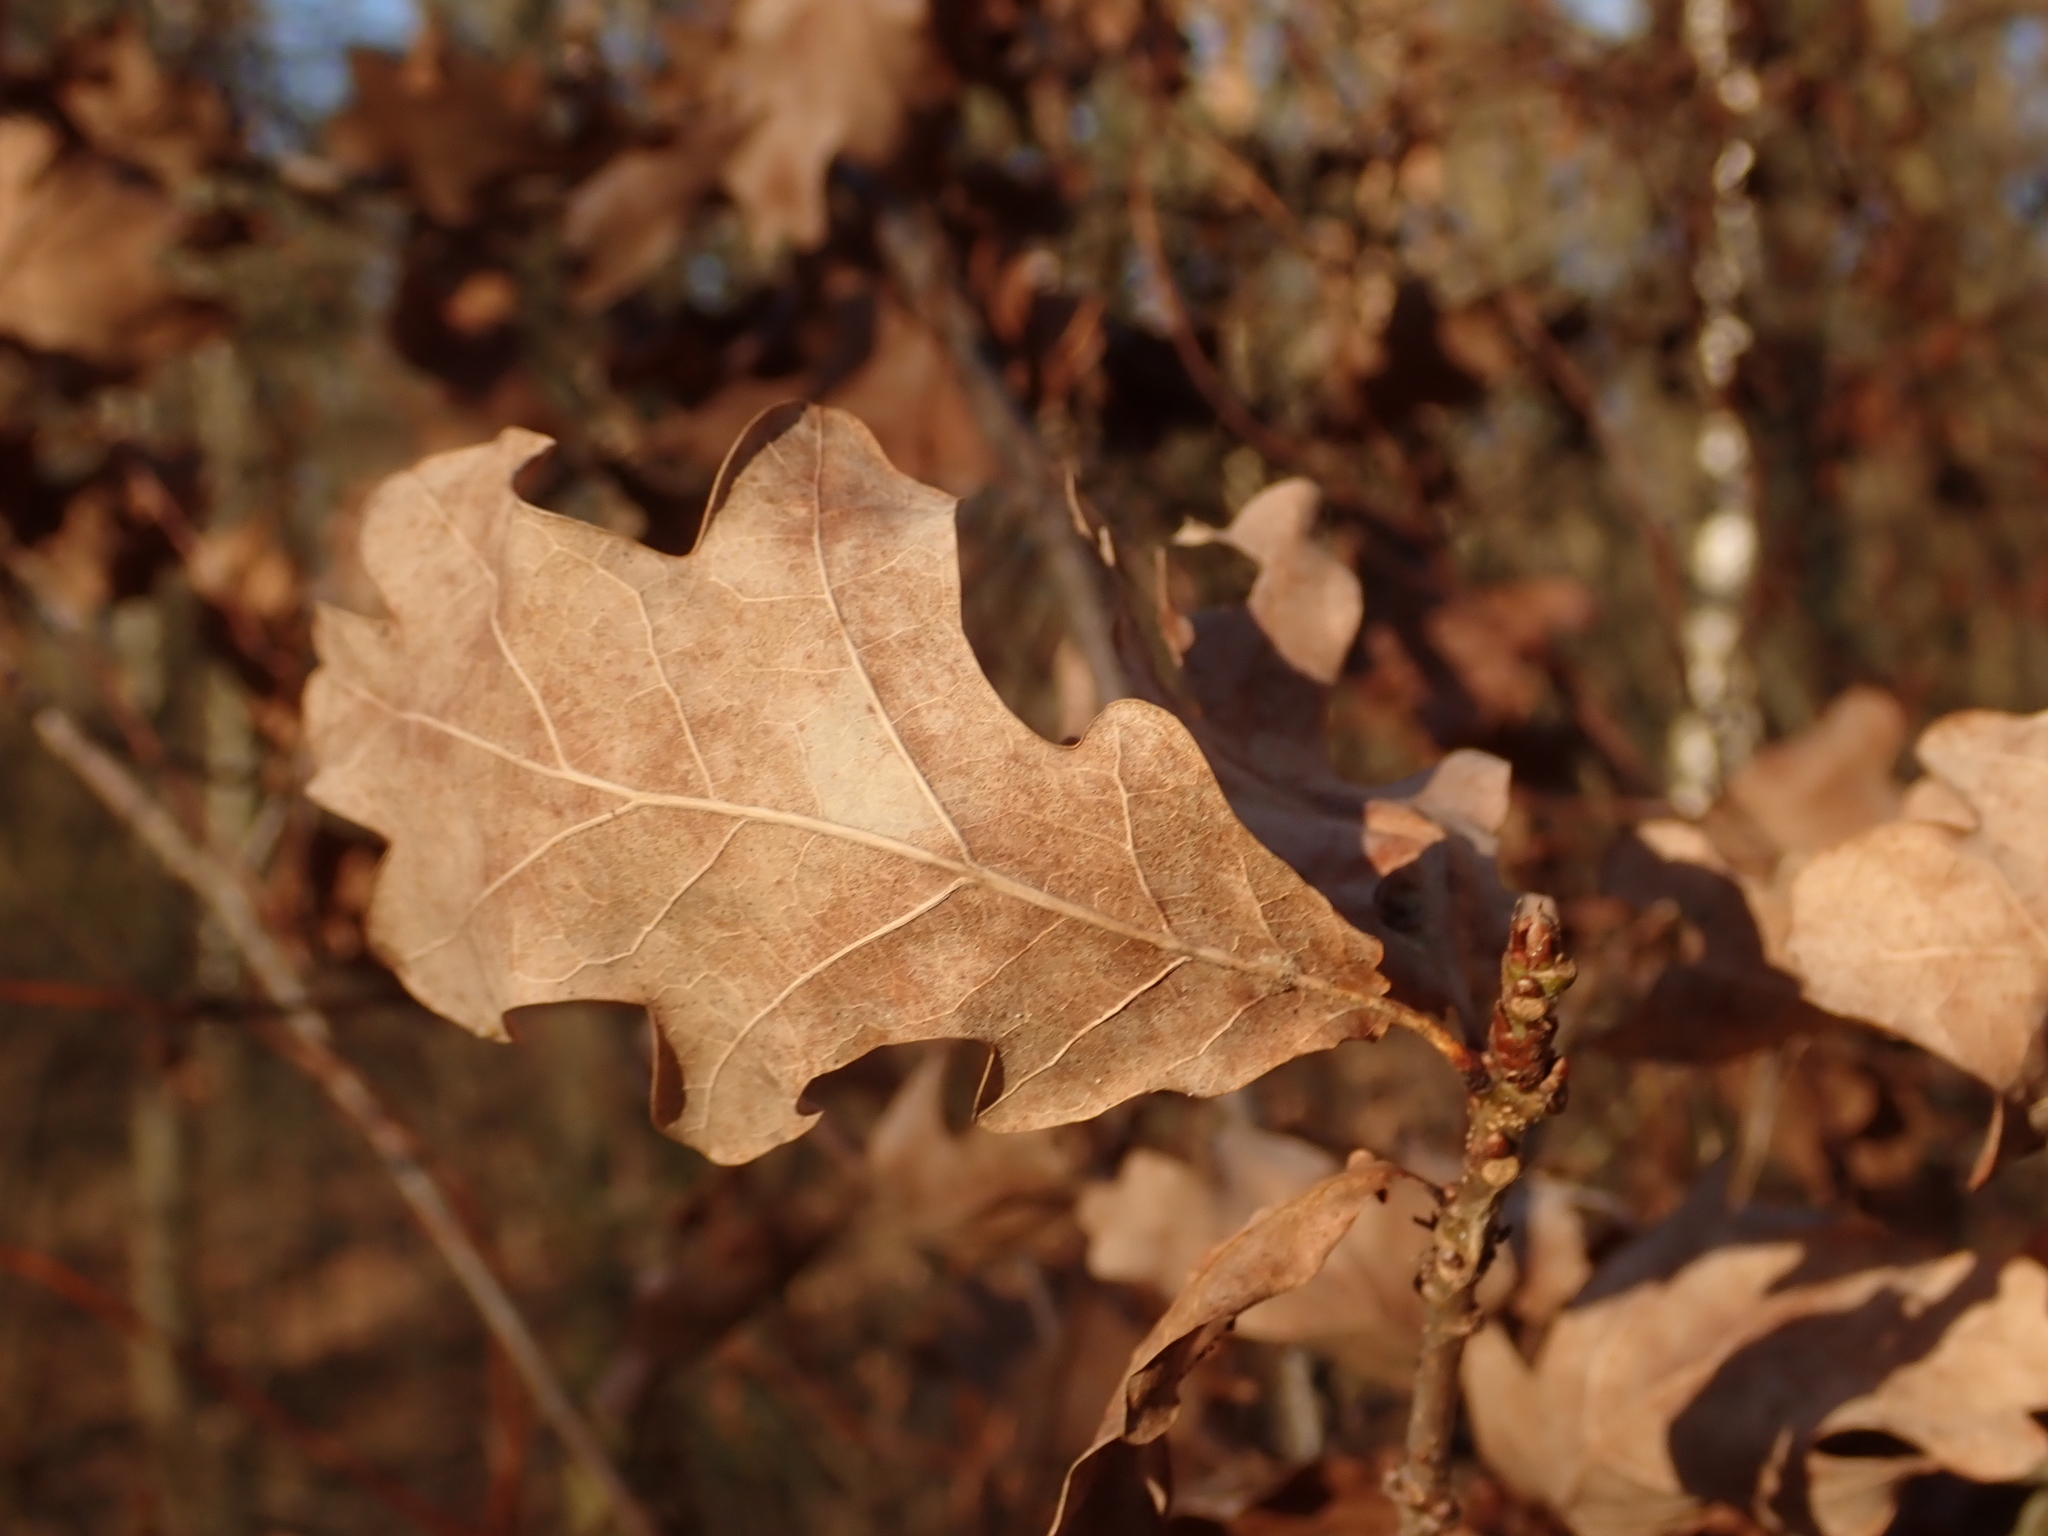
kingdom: Plantae
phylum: Tracheophyta
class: Magnoliopsida
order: Fagales
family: Fagaceae
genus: Quercus
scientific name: Quercus robur
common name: Pedunculate oak
